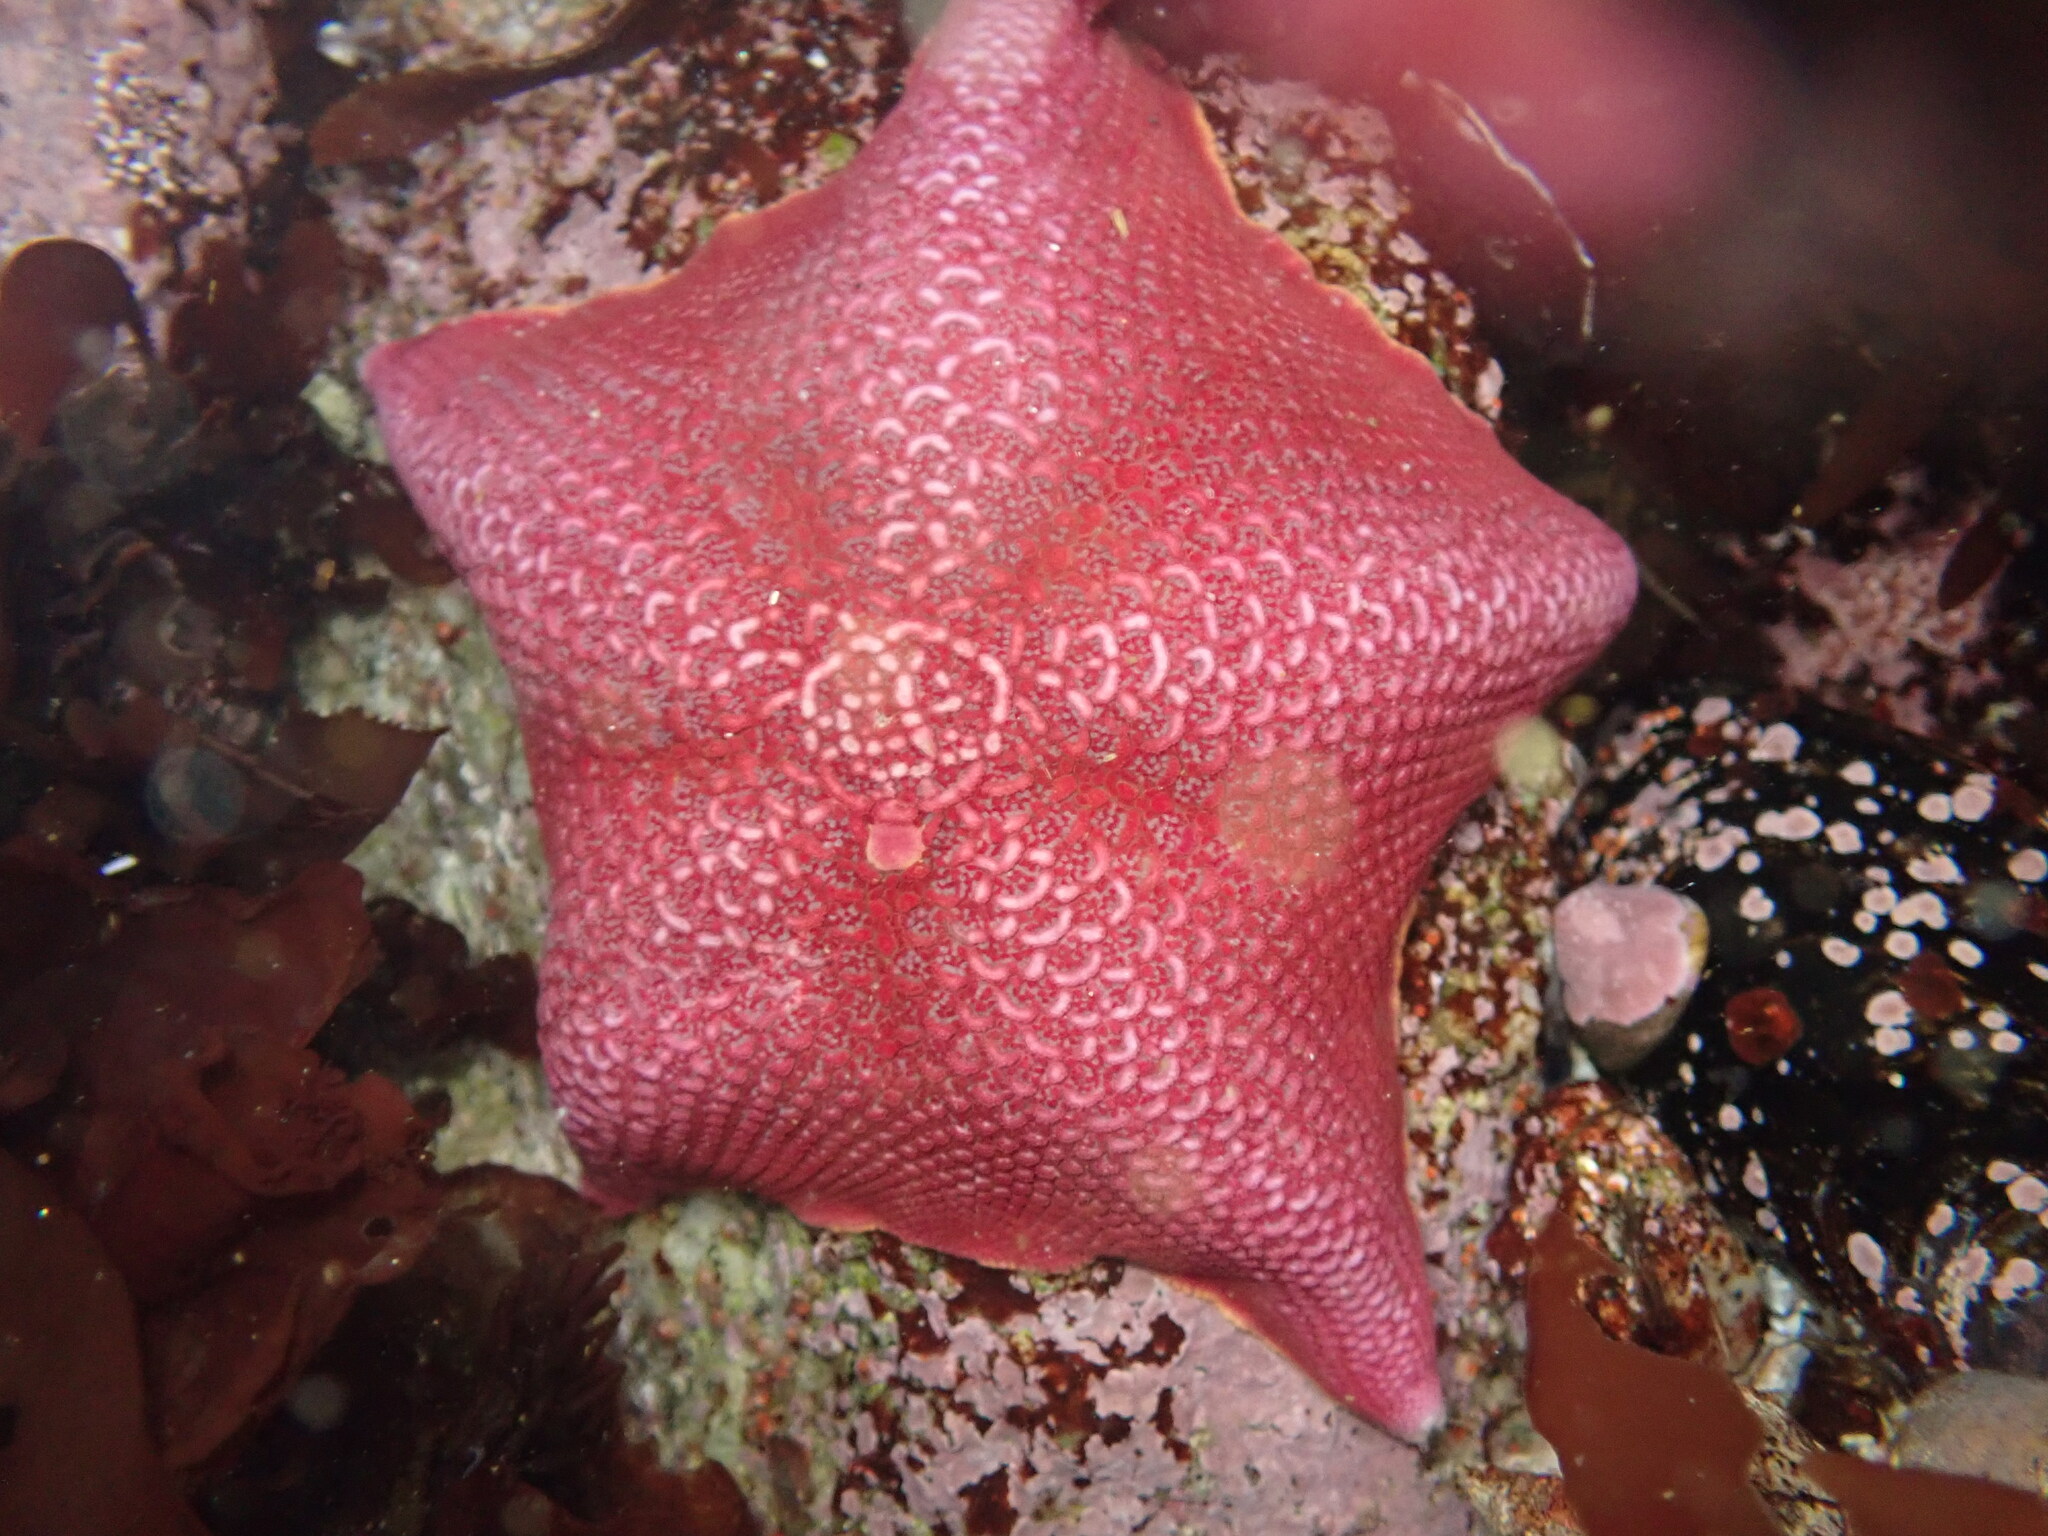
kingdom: Animalia
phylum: Echinodermata
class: Asteroidea
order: Valvatida
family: Asterinidae
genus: Patiria
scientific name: Patiria miniata
